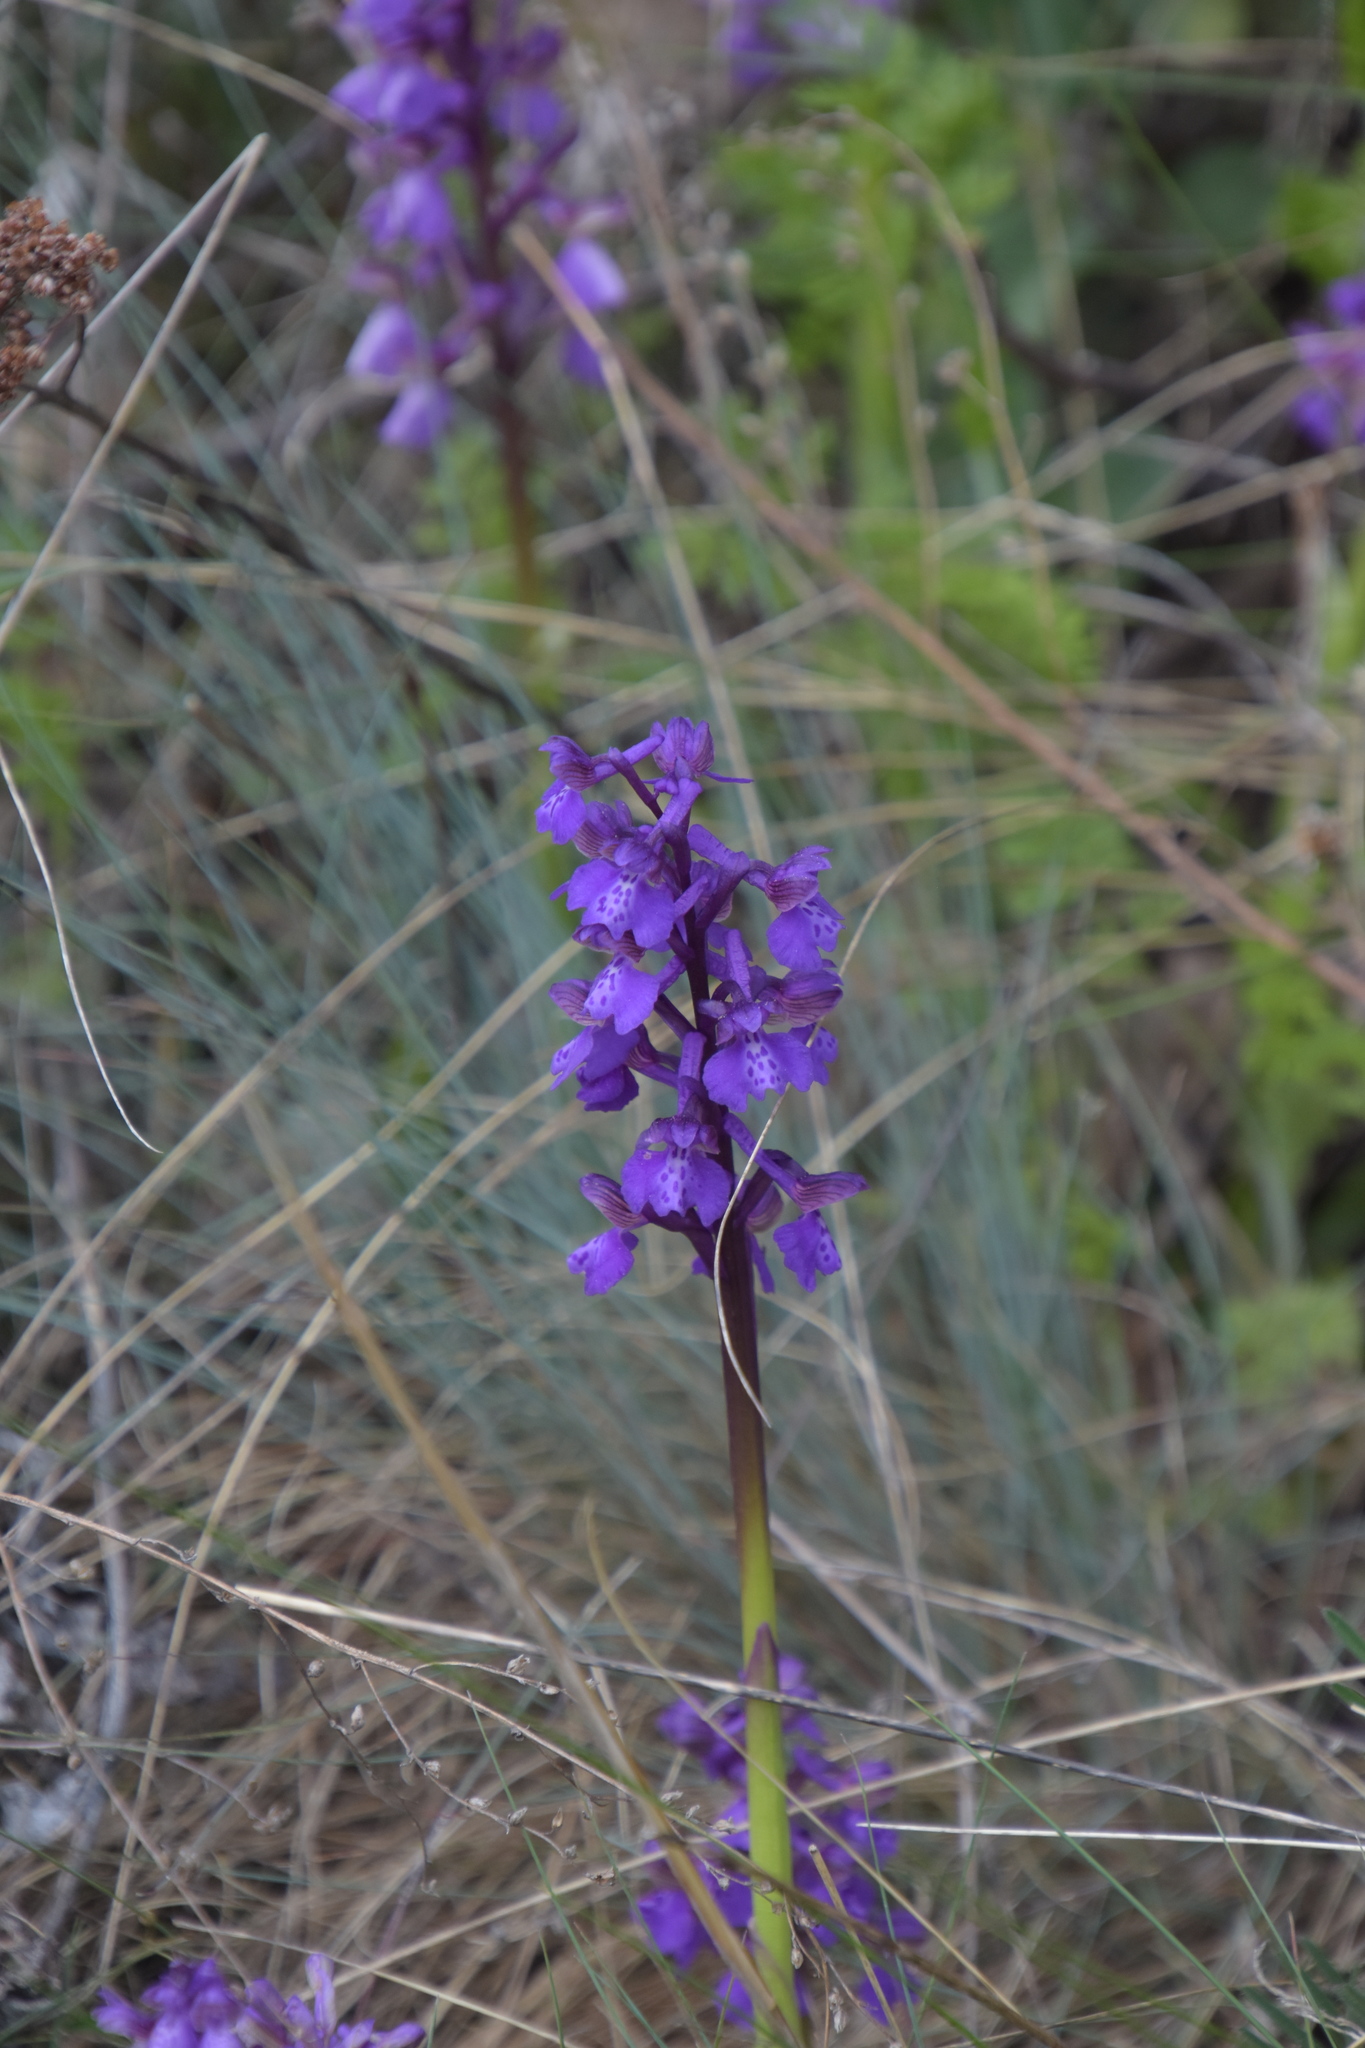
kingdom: Plantae
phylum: Tracheophyta
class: Liliopsida
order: Asparagales
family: Orchidaceae
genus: Anacamptis
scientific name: Anacamptis morio
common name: Green-winged orchid
